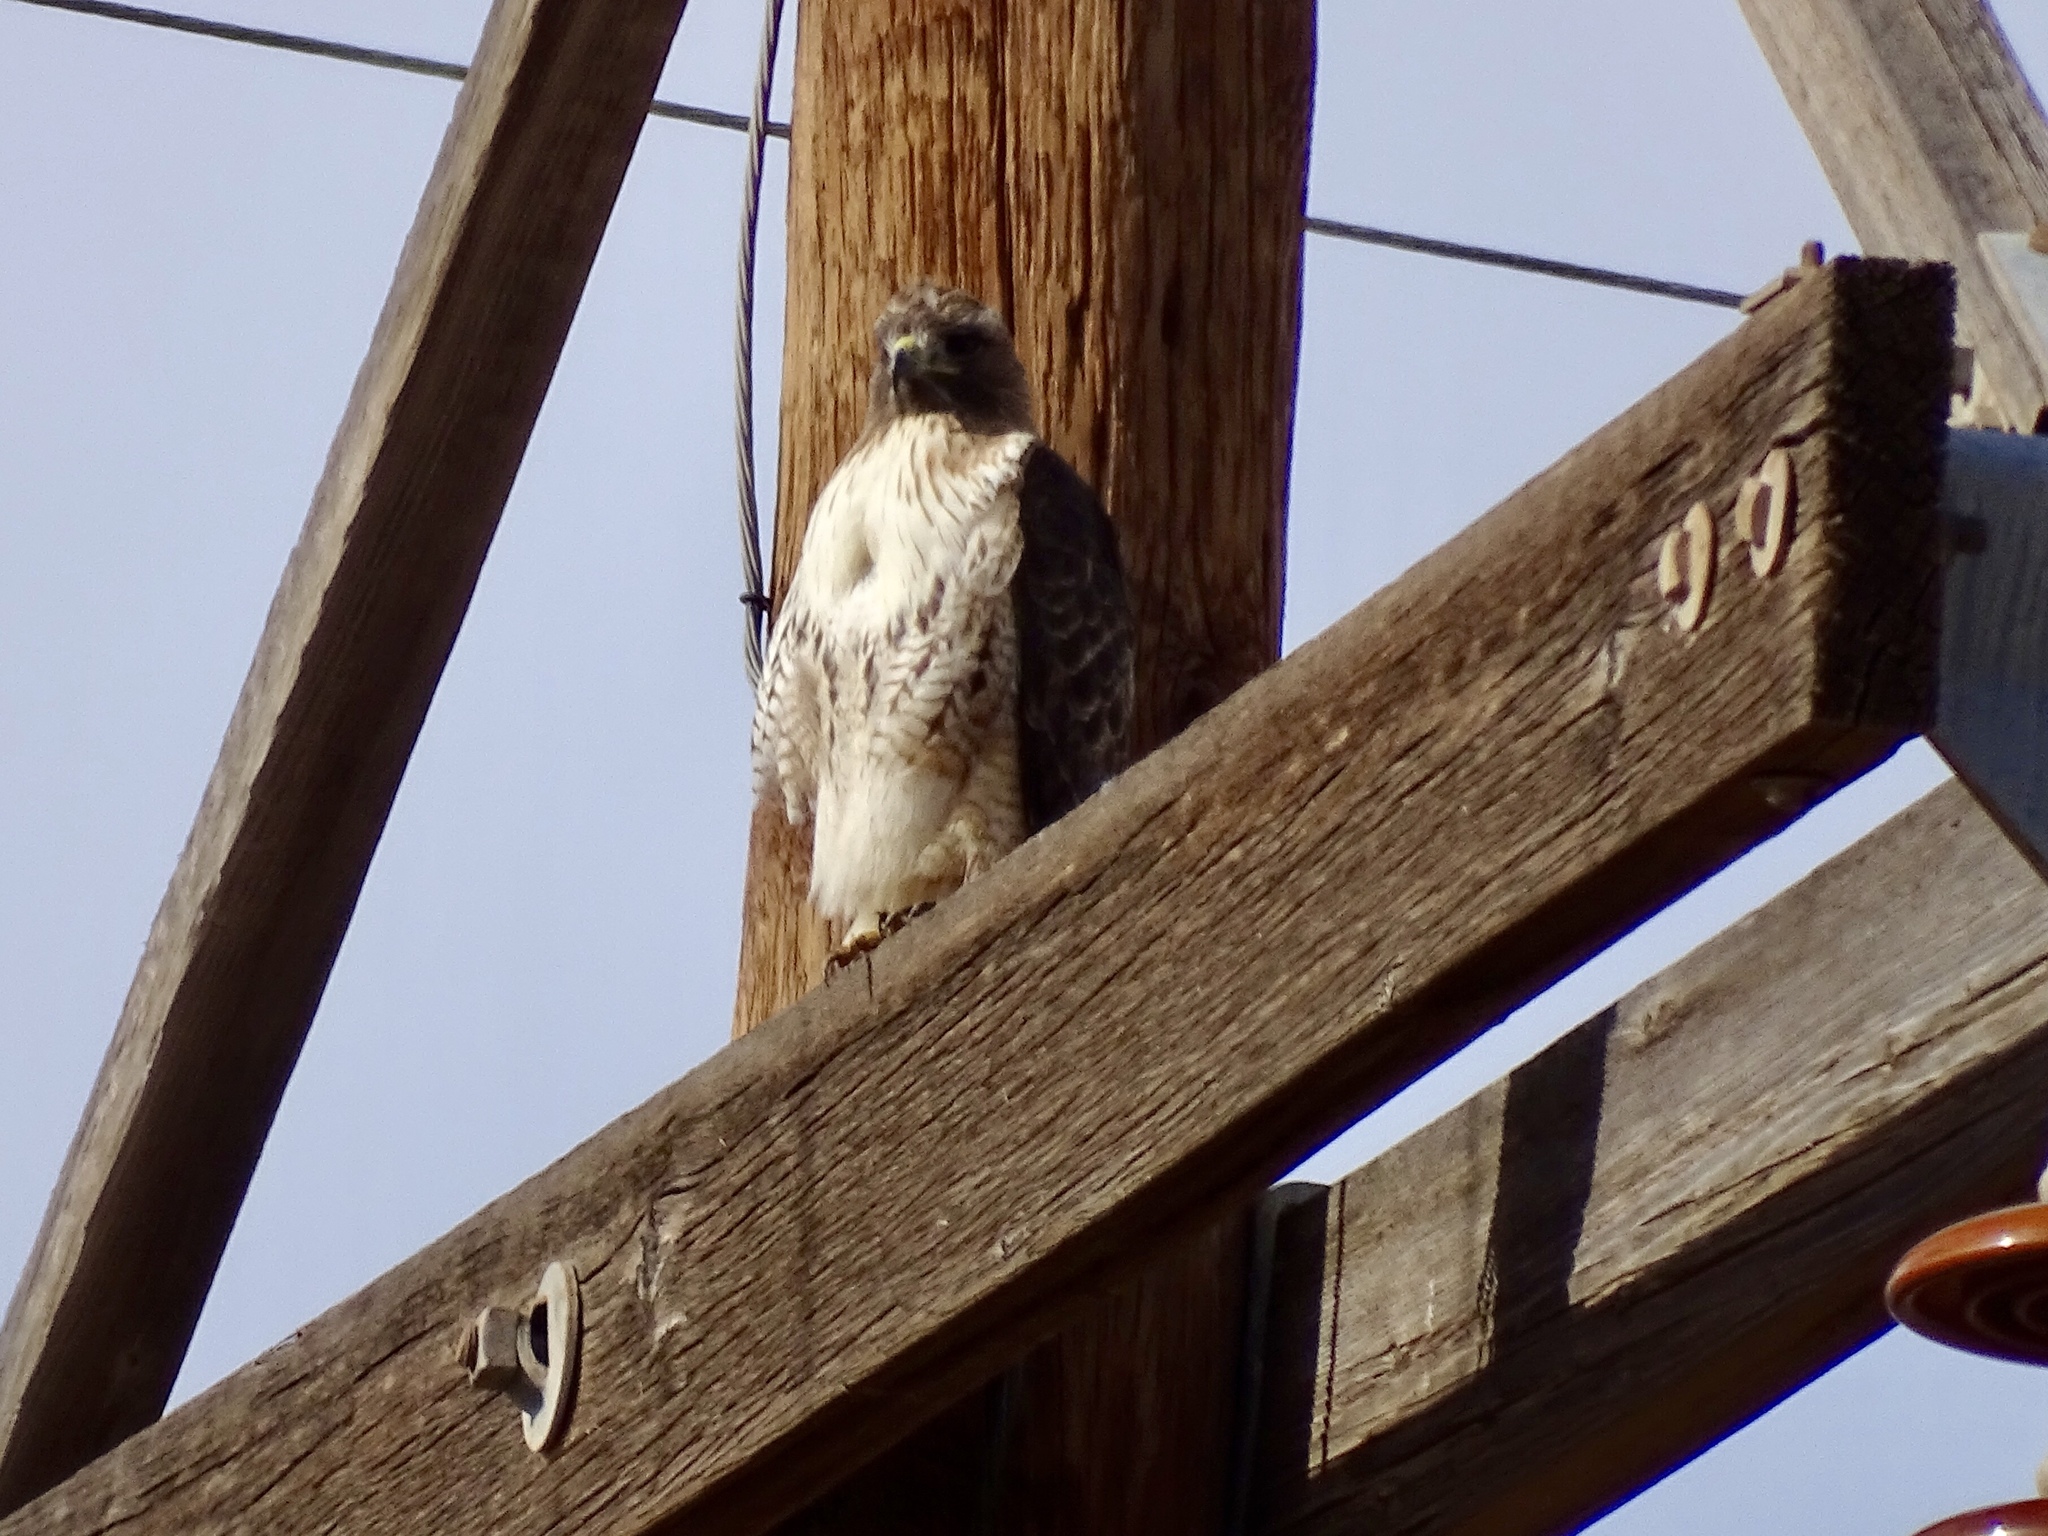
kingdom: Animalia
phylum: Chordata
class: Aves
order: Accipitriformes
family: Accipitridae
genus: Buteo
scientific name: Buteo jamaicensis
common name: Red-tailed hawk
